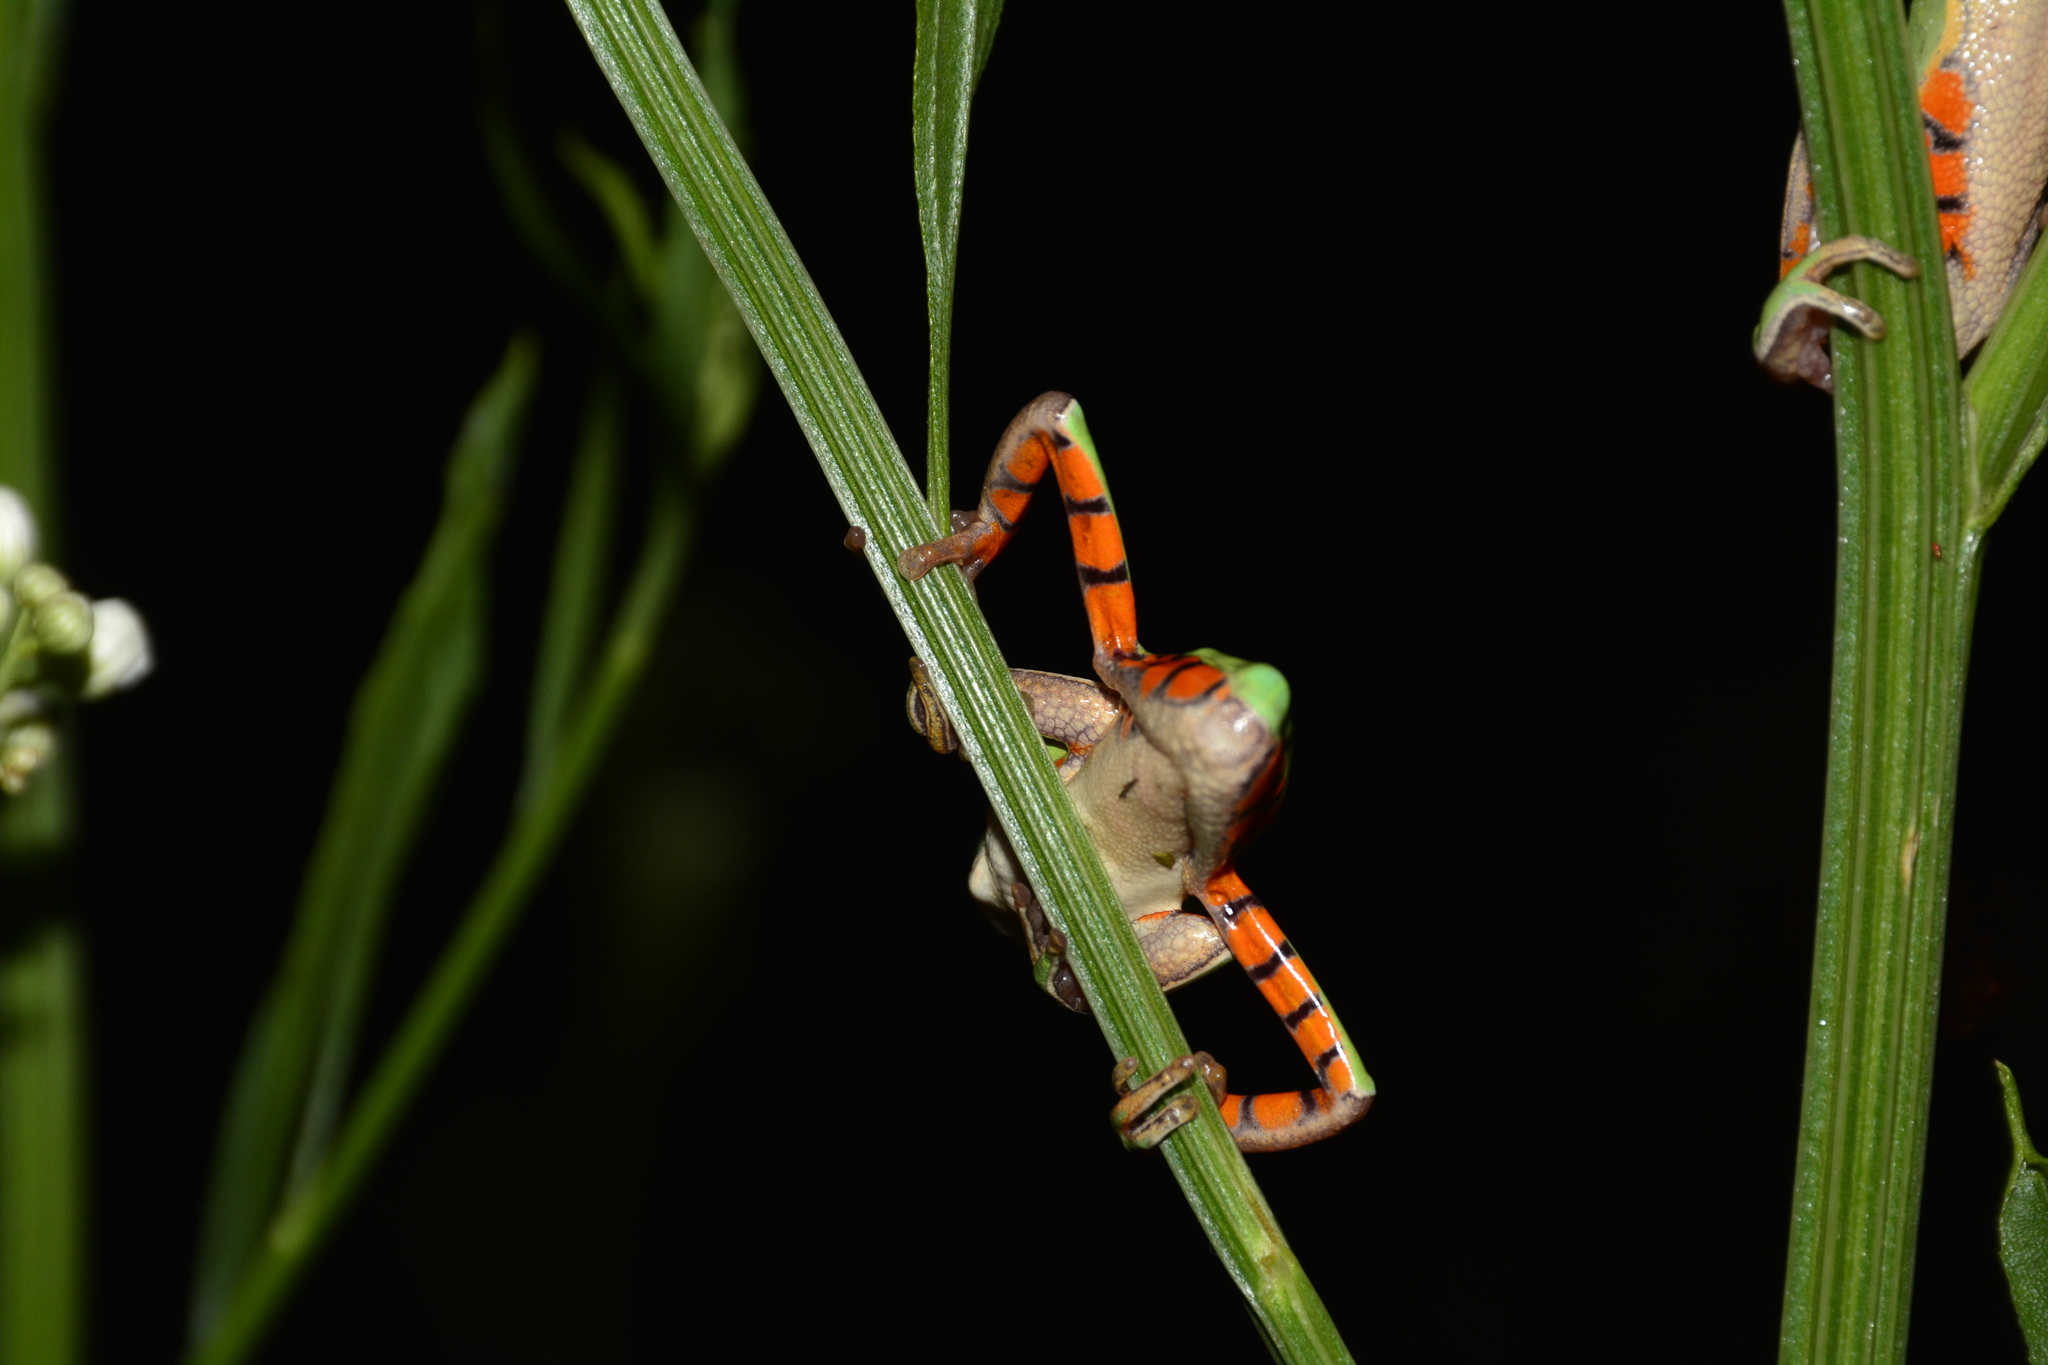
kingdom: Animalia
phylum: Chordata
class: Amphibia
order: Anura
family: Phyllomedusidae
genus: Pithecopus
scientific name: Pithecopus azureus
